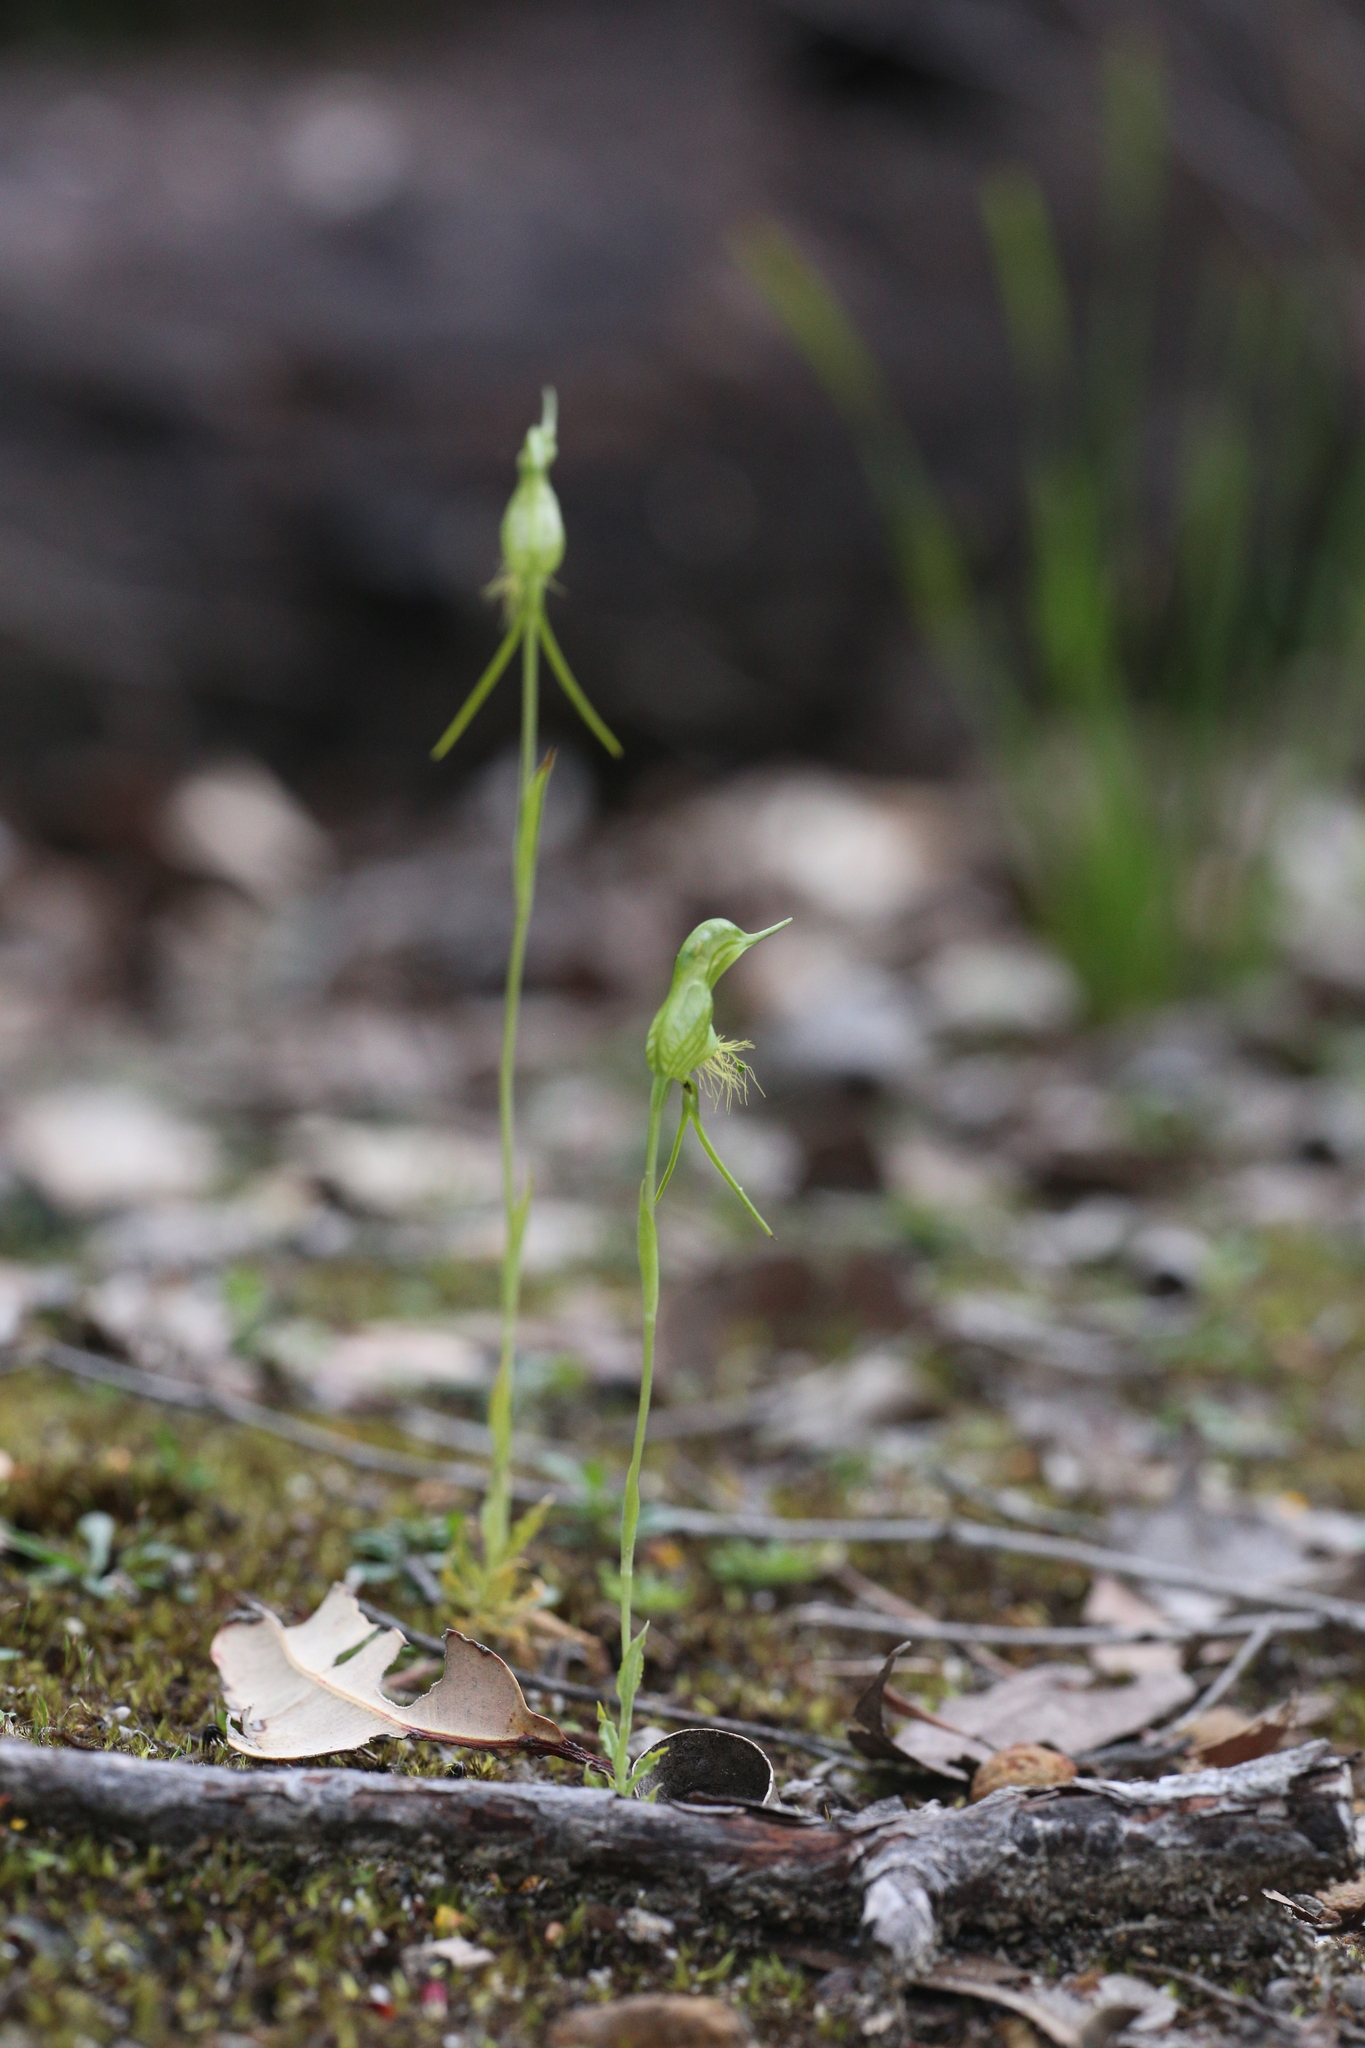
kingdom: Plantae
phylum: Tracheophyta
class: Liliopsida
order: Asparagales
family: Orchidaceae
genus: Pterostylis
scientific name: Pterostylis turfosa
